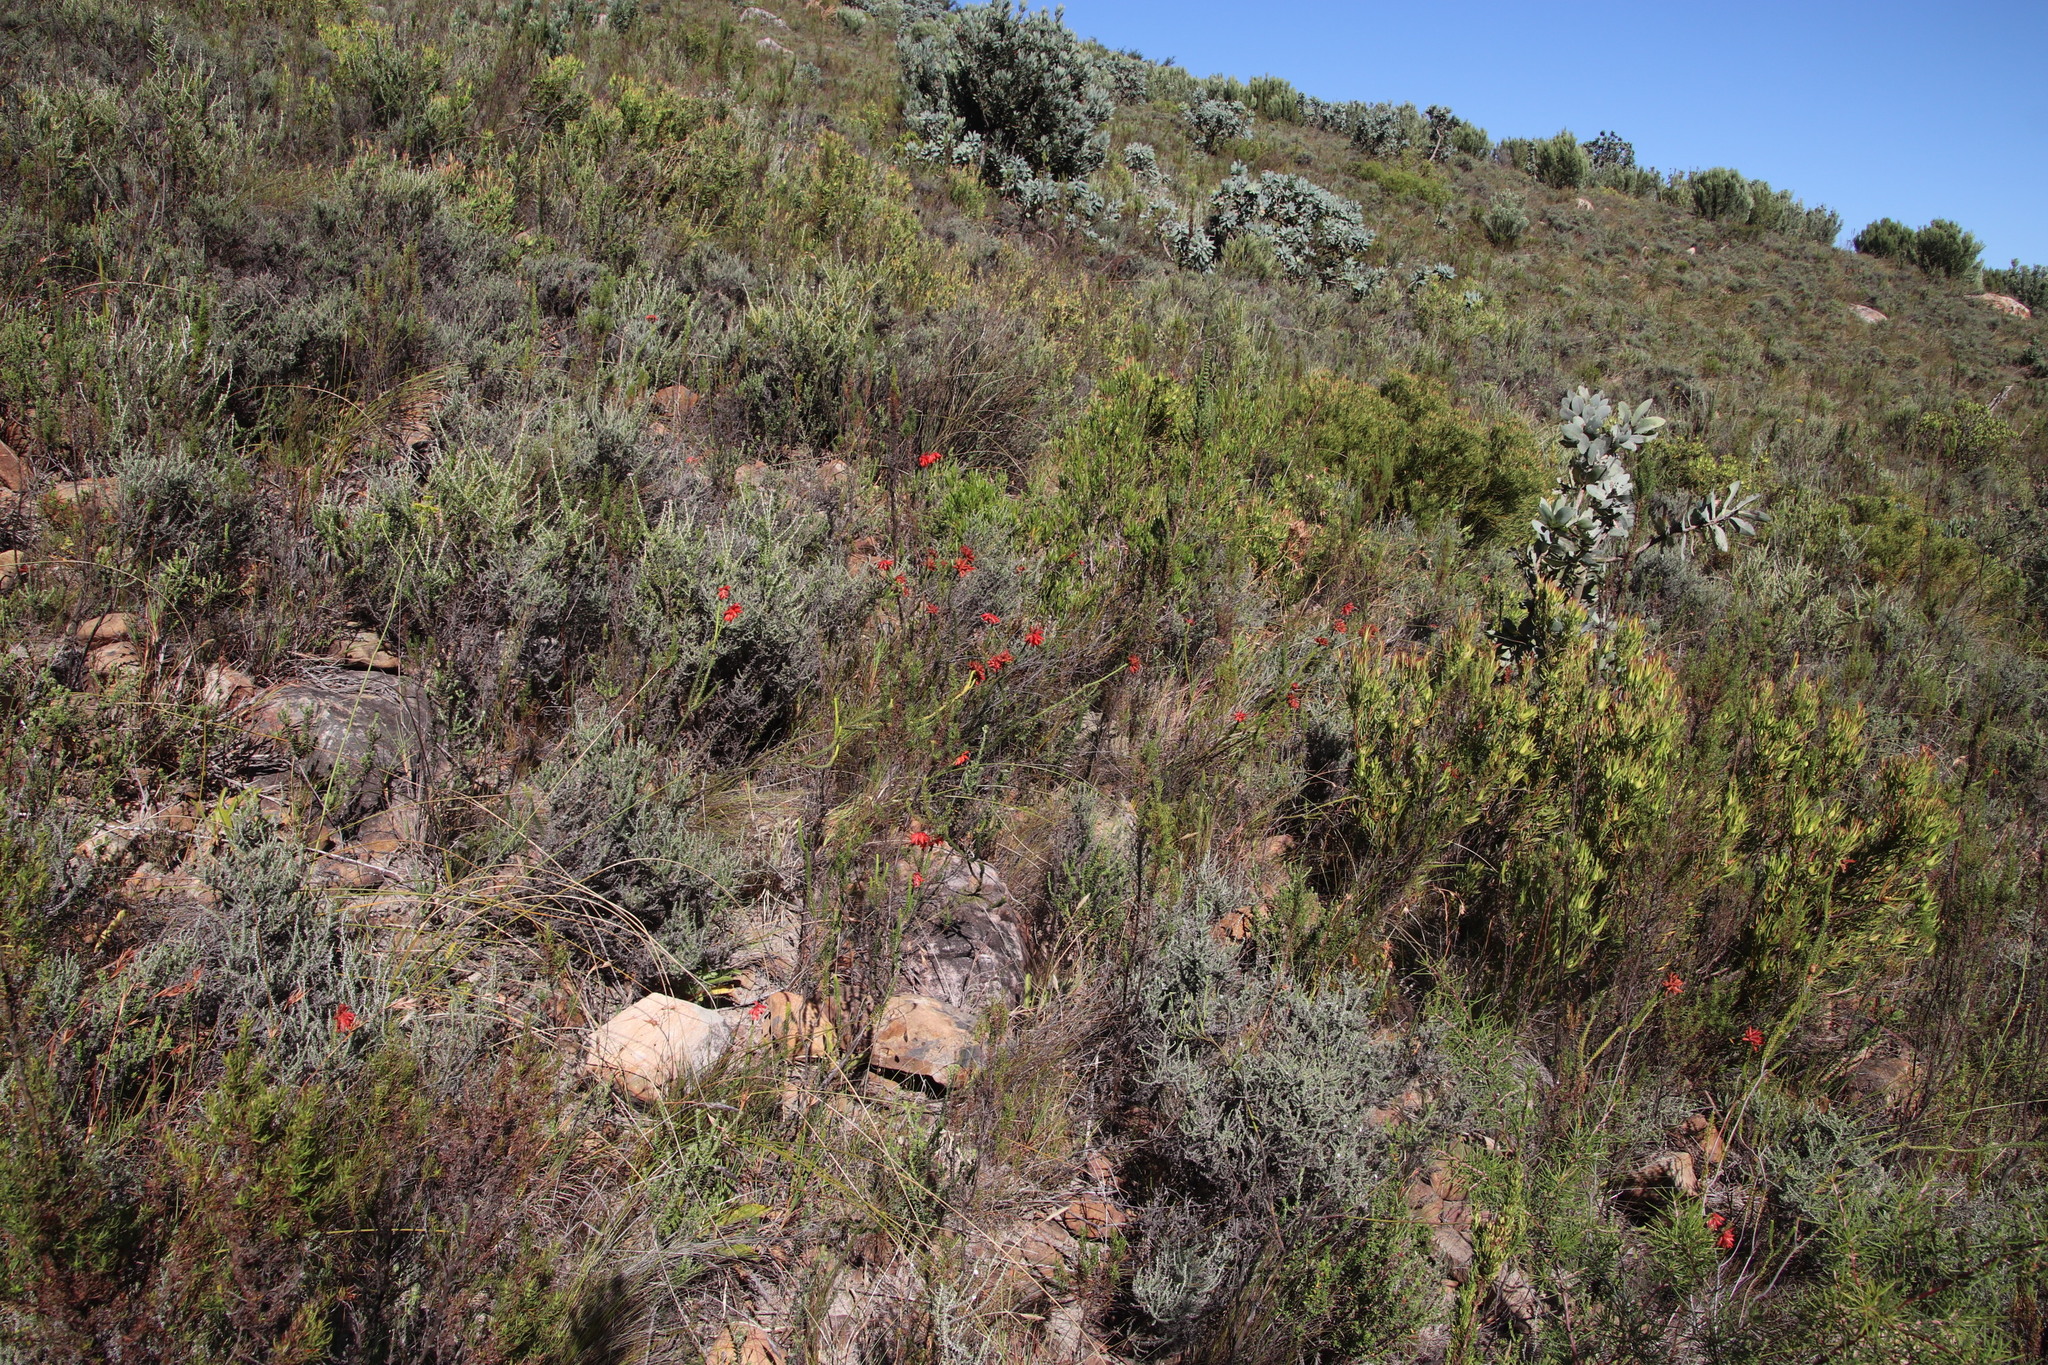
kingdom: Plantae
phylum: Tracheophyta
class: Magnoliopsida
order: Ericales
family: Ericaceae
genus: Erica
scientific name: Erica cerinthoides
